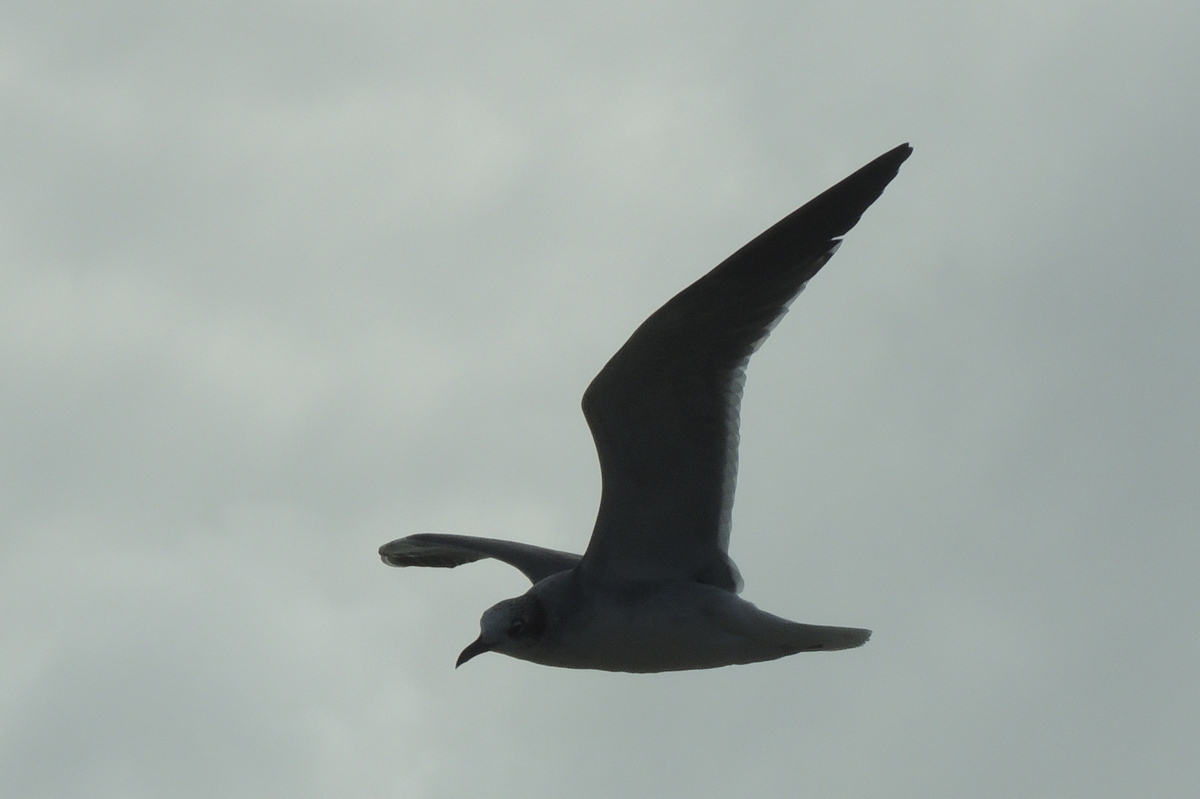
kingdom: Animalia
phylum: Chordata
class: Aves
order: Charadriiformes
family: Laridae
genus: Leucophaeus
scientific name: Leucophaeus atricilla
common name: Laughing gull
